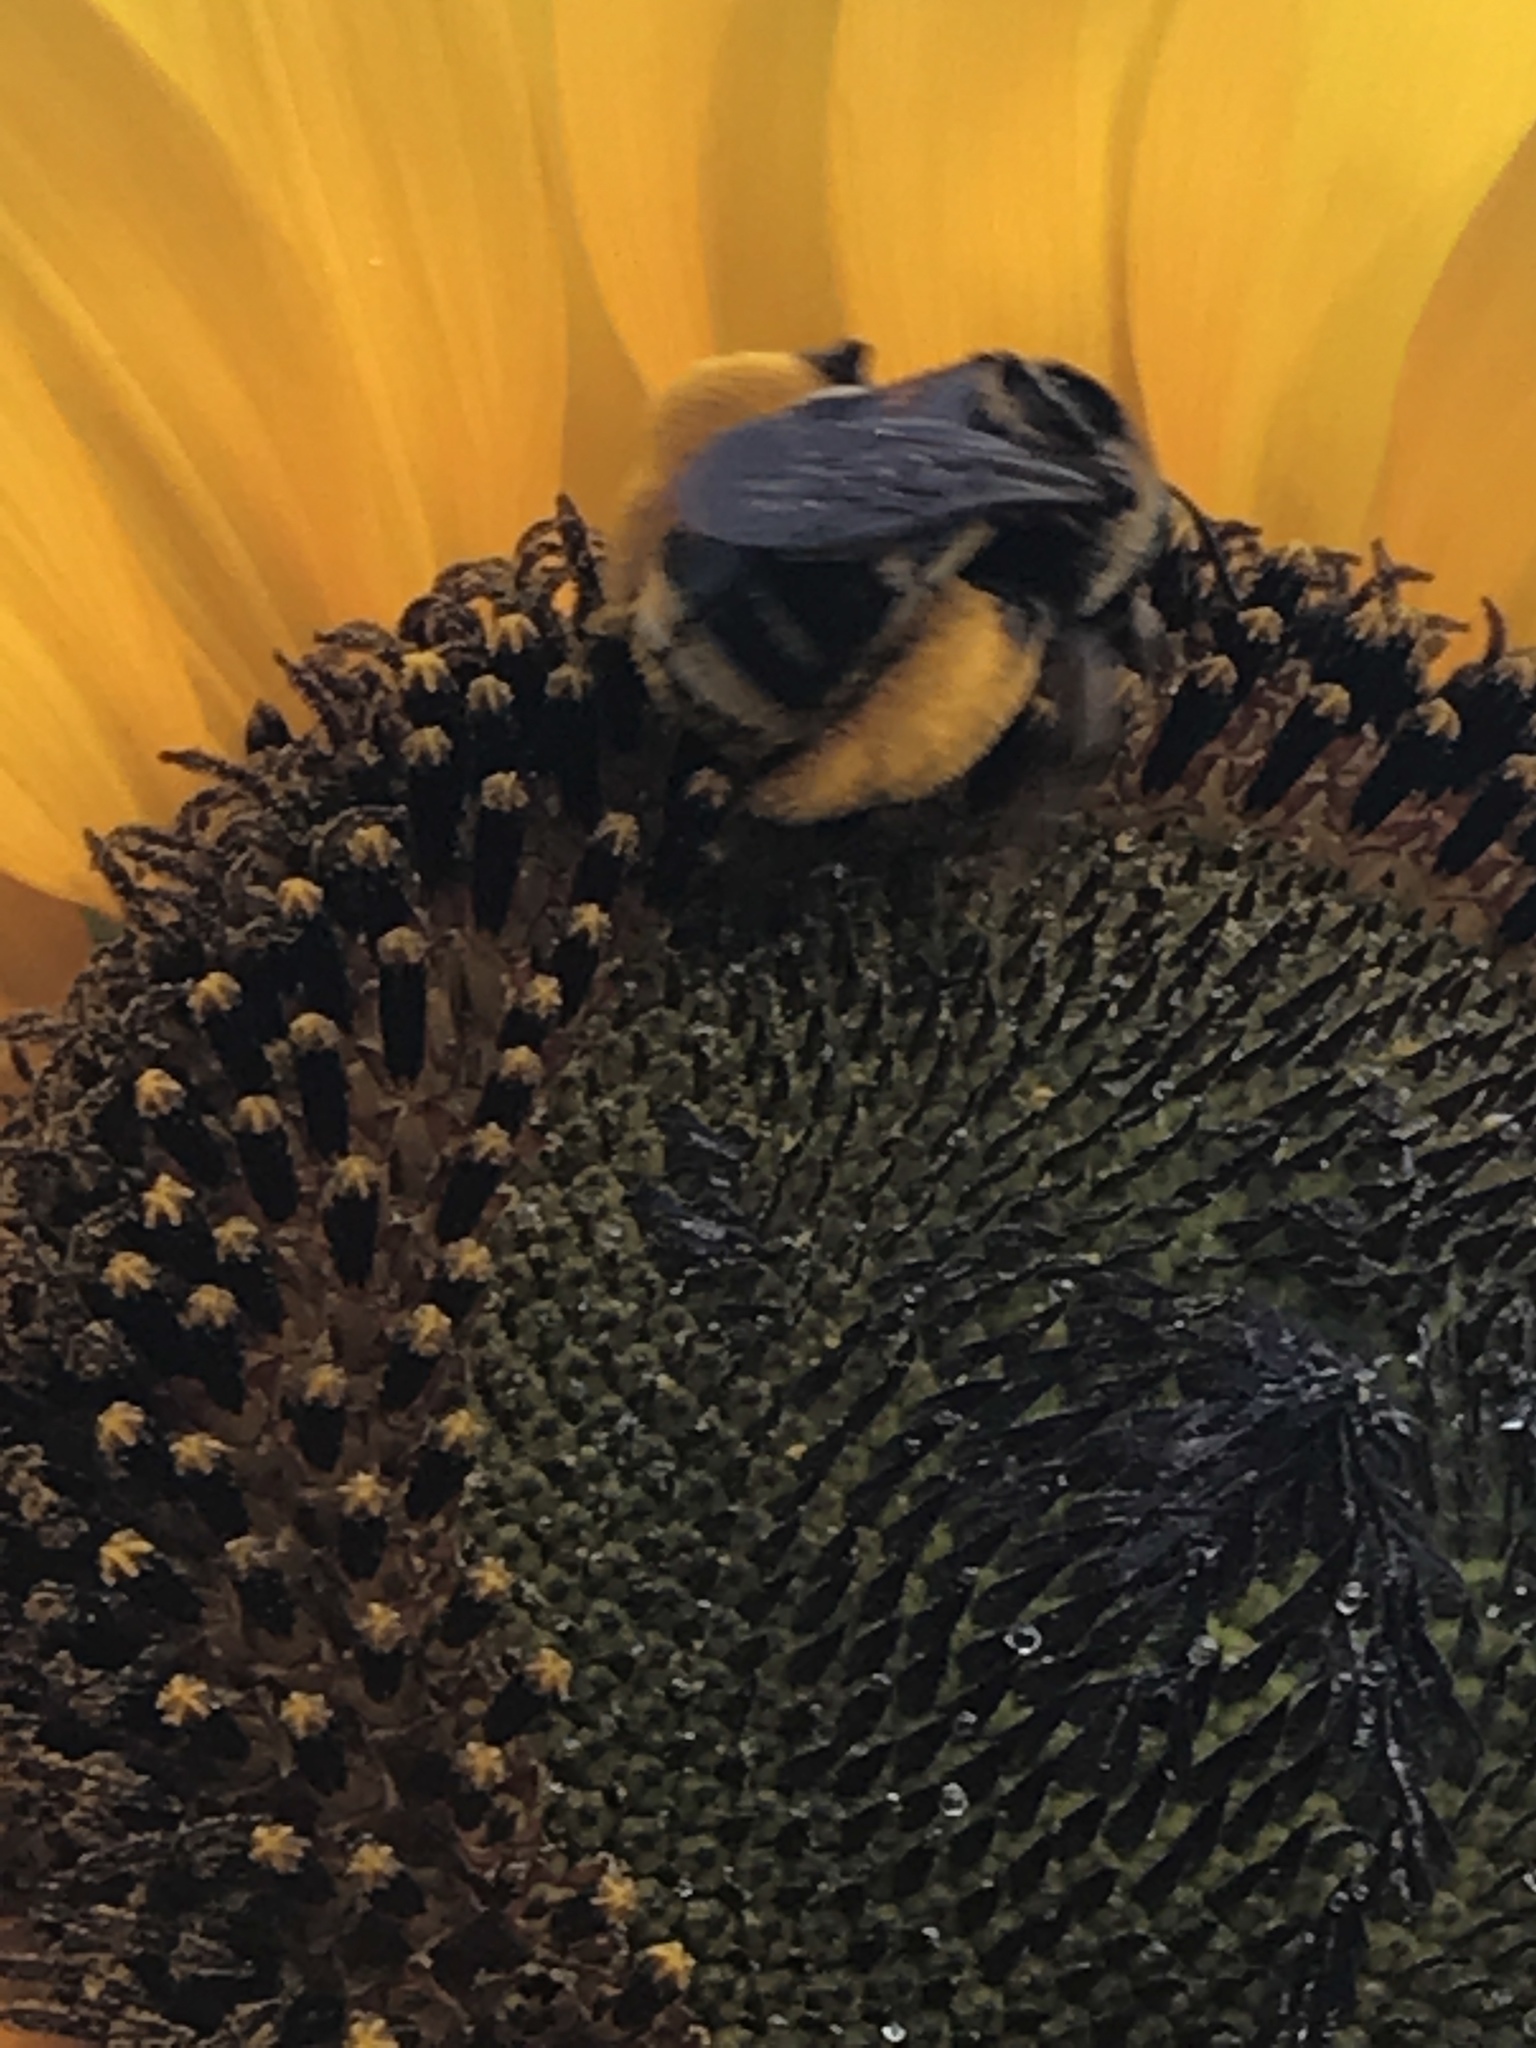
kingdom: Animalia
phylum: Arthropoda
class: Insecta
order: Hymenoptera
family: Apidae
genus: Svastra
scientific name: Svastra obliqua
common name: Oblique longhorn
